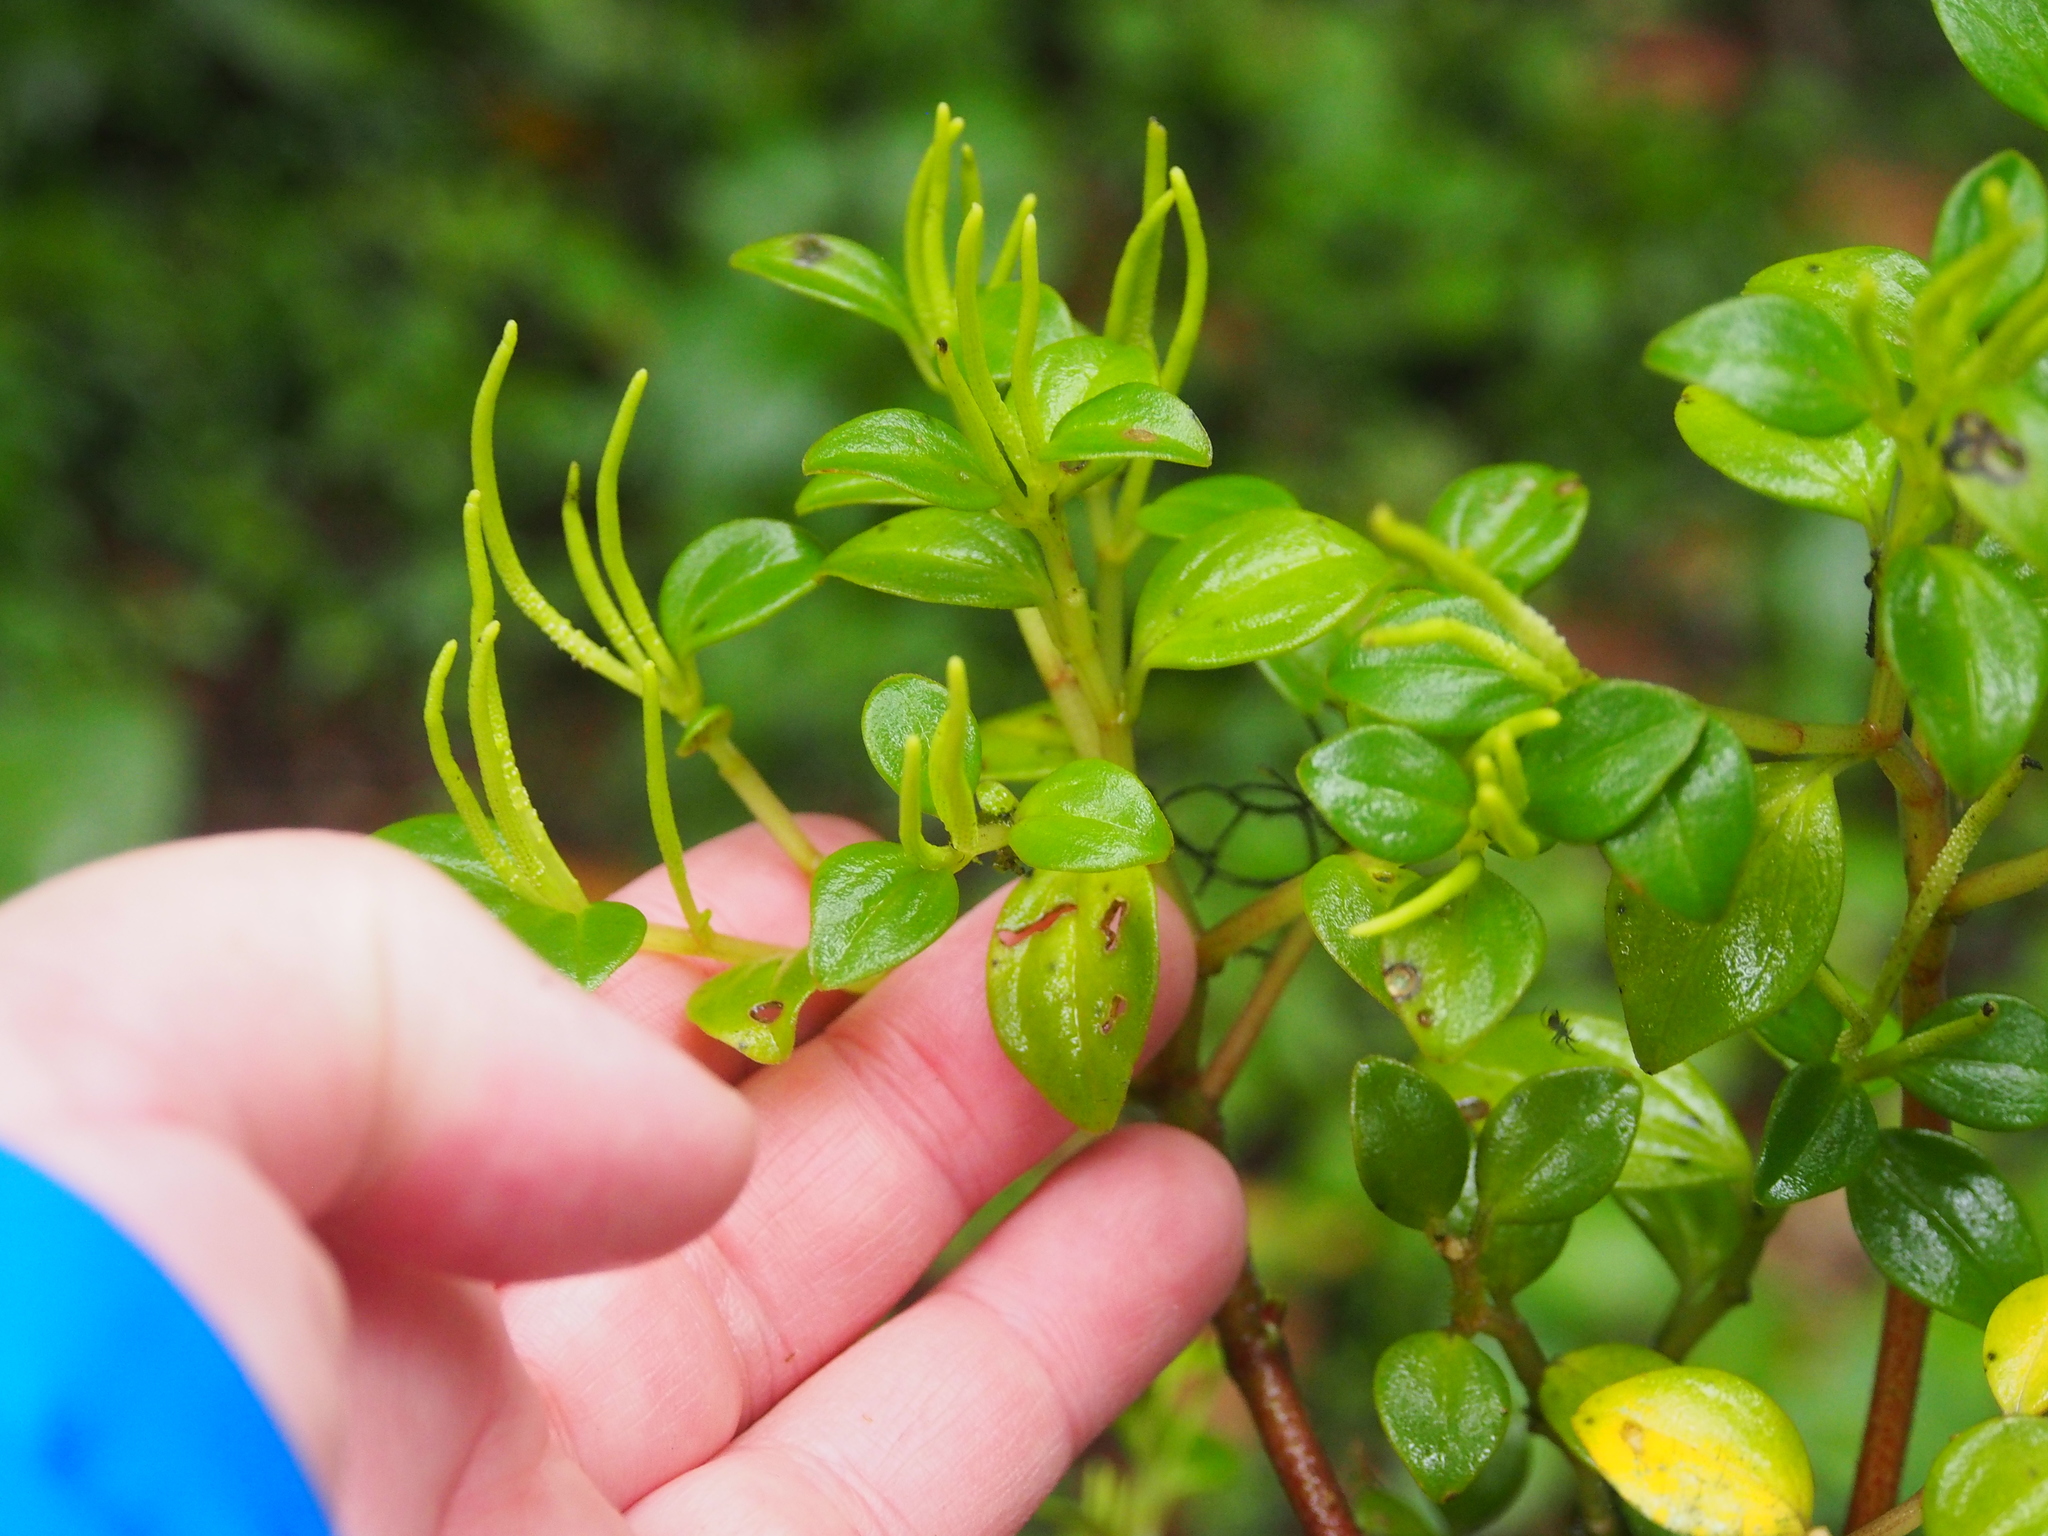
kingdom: Plantae
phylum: Tracheophyta
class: Magnoliopsida
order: Piperales
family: Piperaceae
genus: Peperomia
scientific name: Peperomia hylophila
